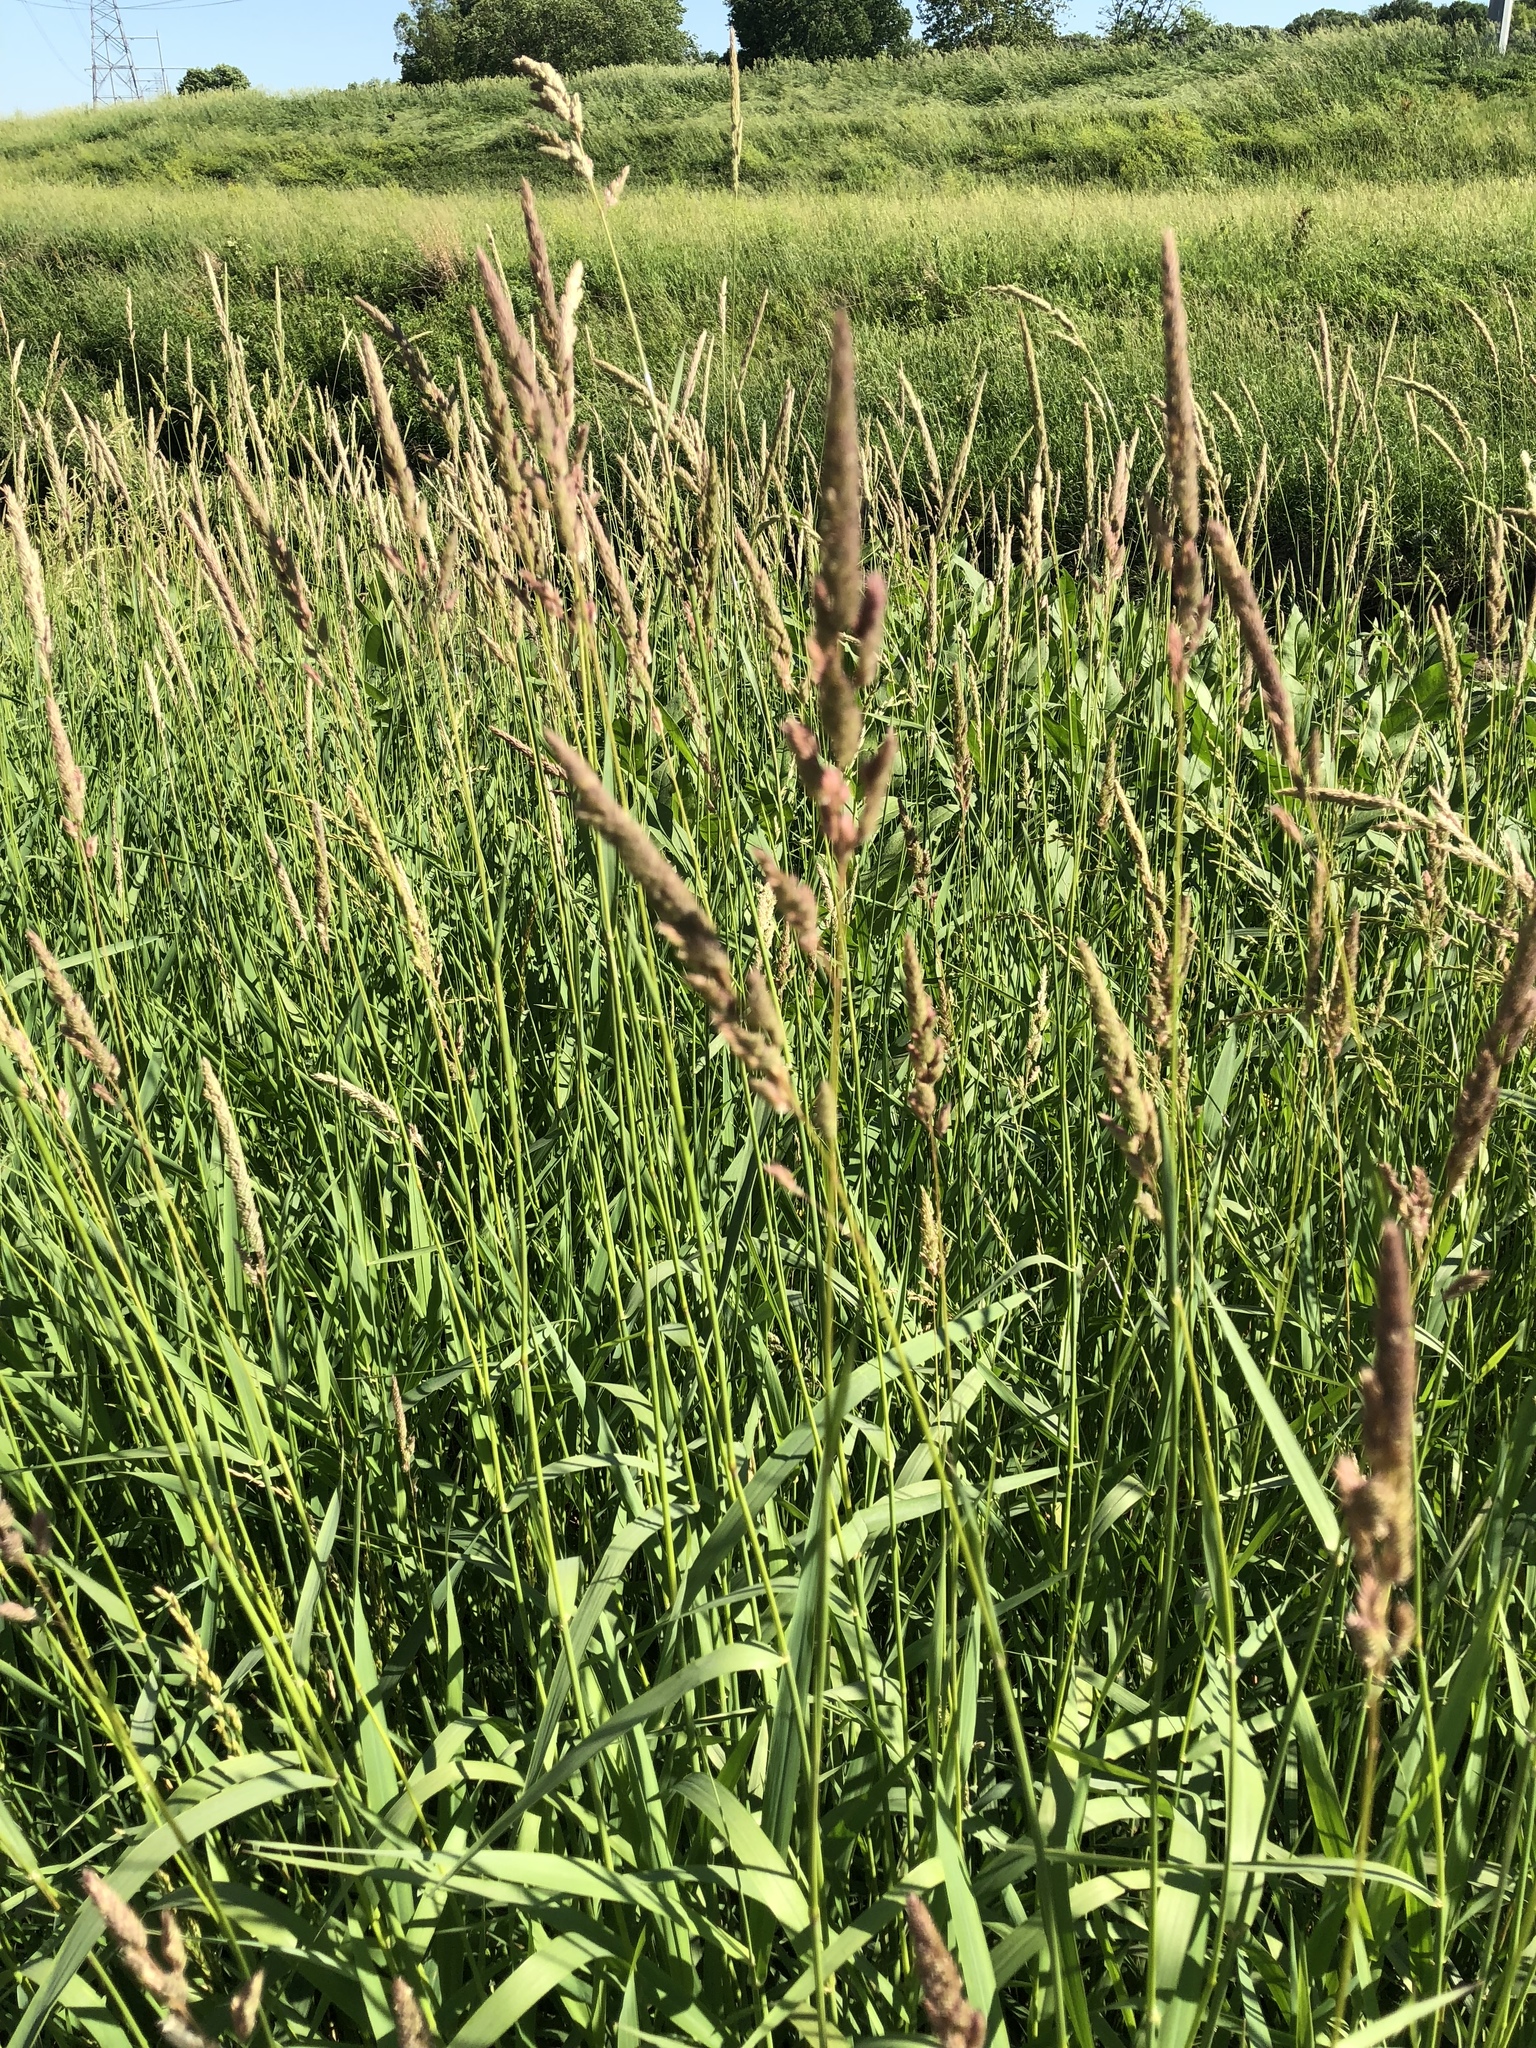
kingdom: Plantae
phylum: Tracheophyta
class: Liliopsida
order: Poales
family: Poaceae
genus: Phalaris
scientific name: Phalaris arundinacea
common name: Reed canary-grass
